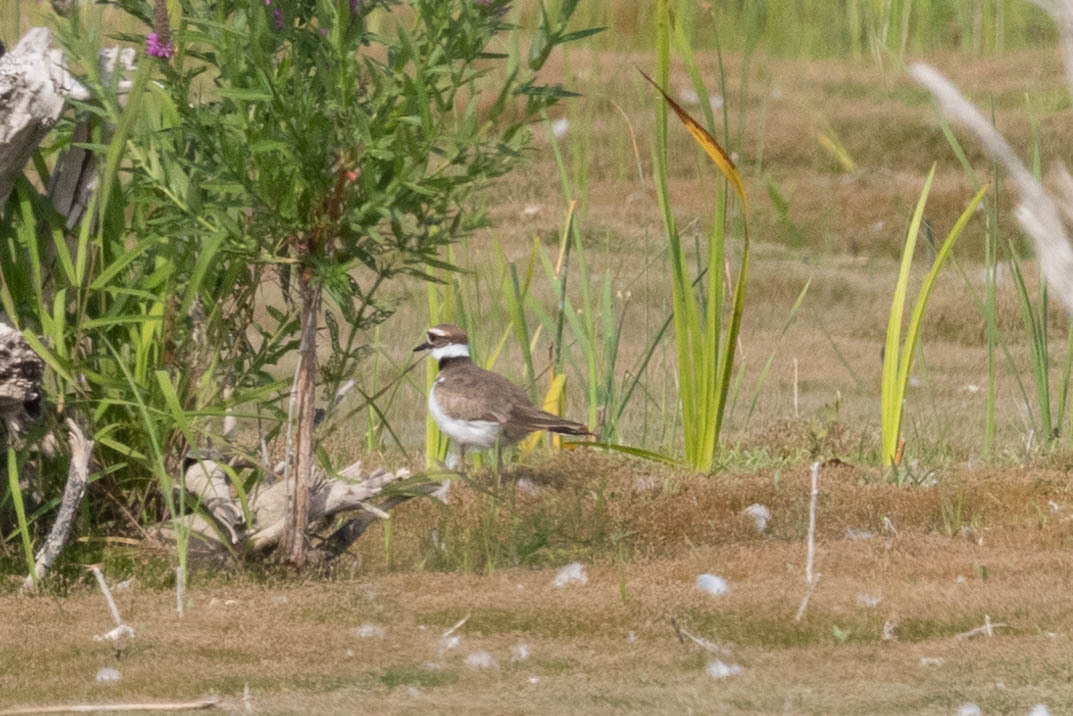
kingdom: Animalia
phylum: Chordata
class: Aves
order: Charadriiformes
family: Charadriidae
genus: Charadrius
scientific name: Charadrius vociferus
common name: Killdeer
